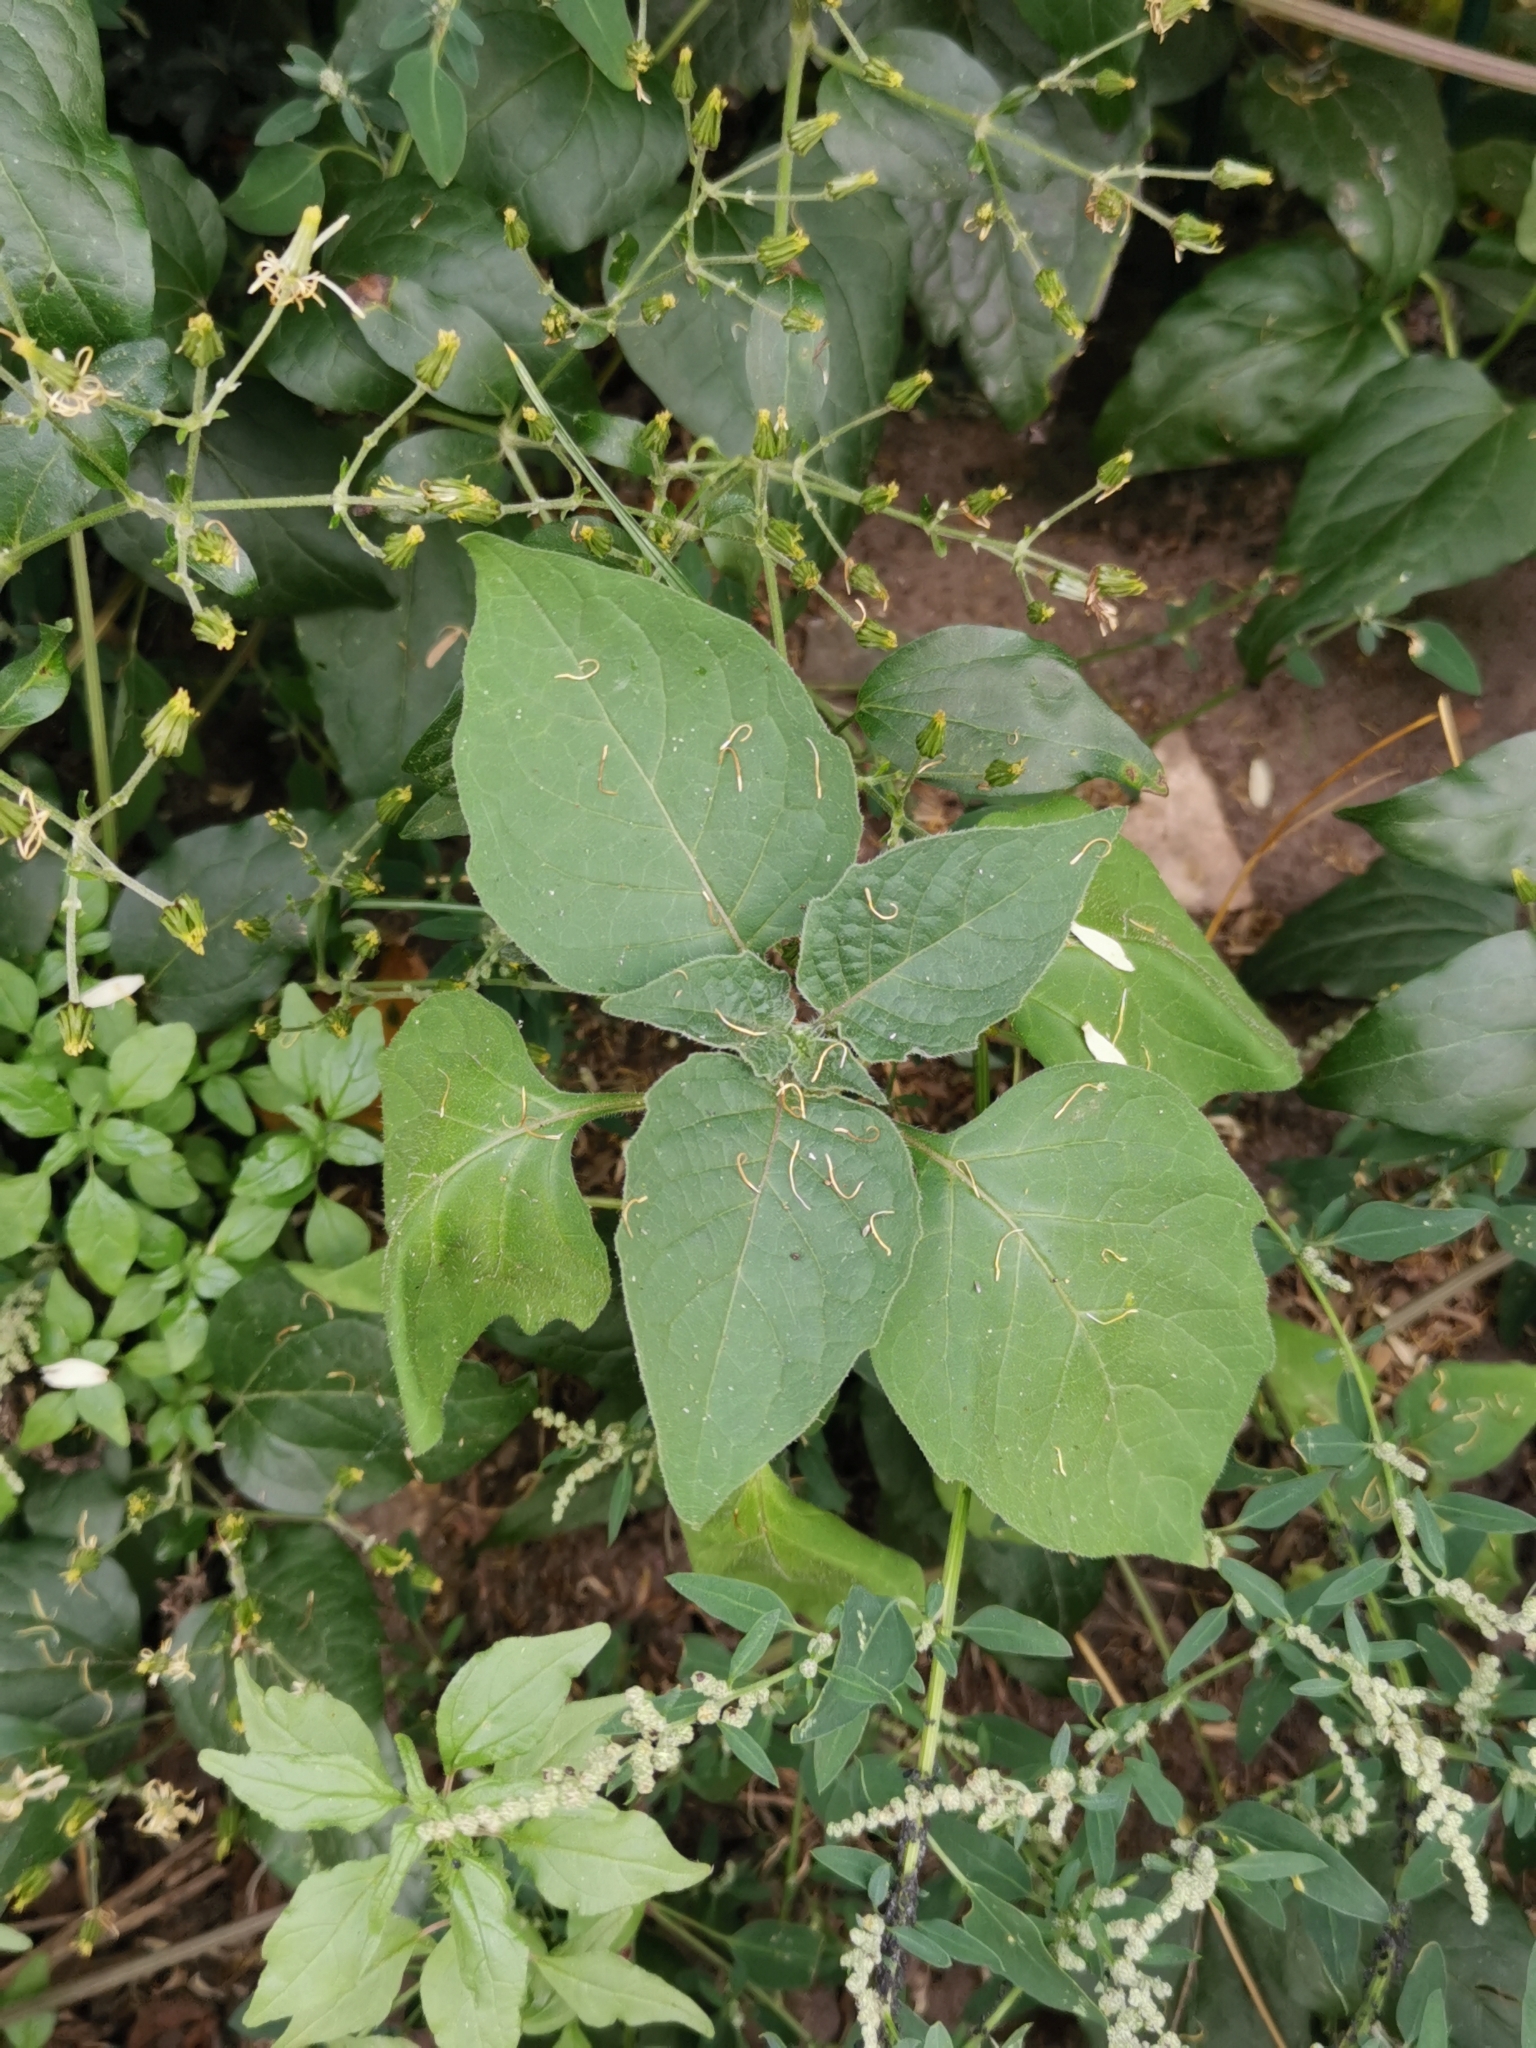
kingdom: Plantae
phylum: Tracheophyta
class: Magnoliopsida
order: Solanales
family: Solanaceae
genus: Solanum
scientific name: Solanum nigrum
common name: Black nightshade
